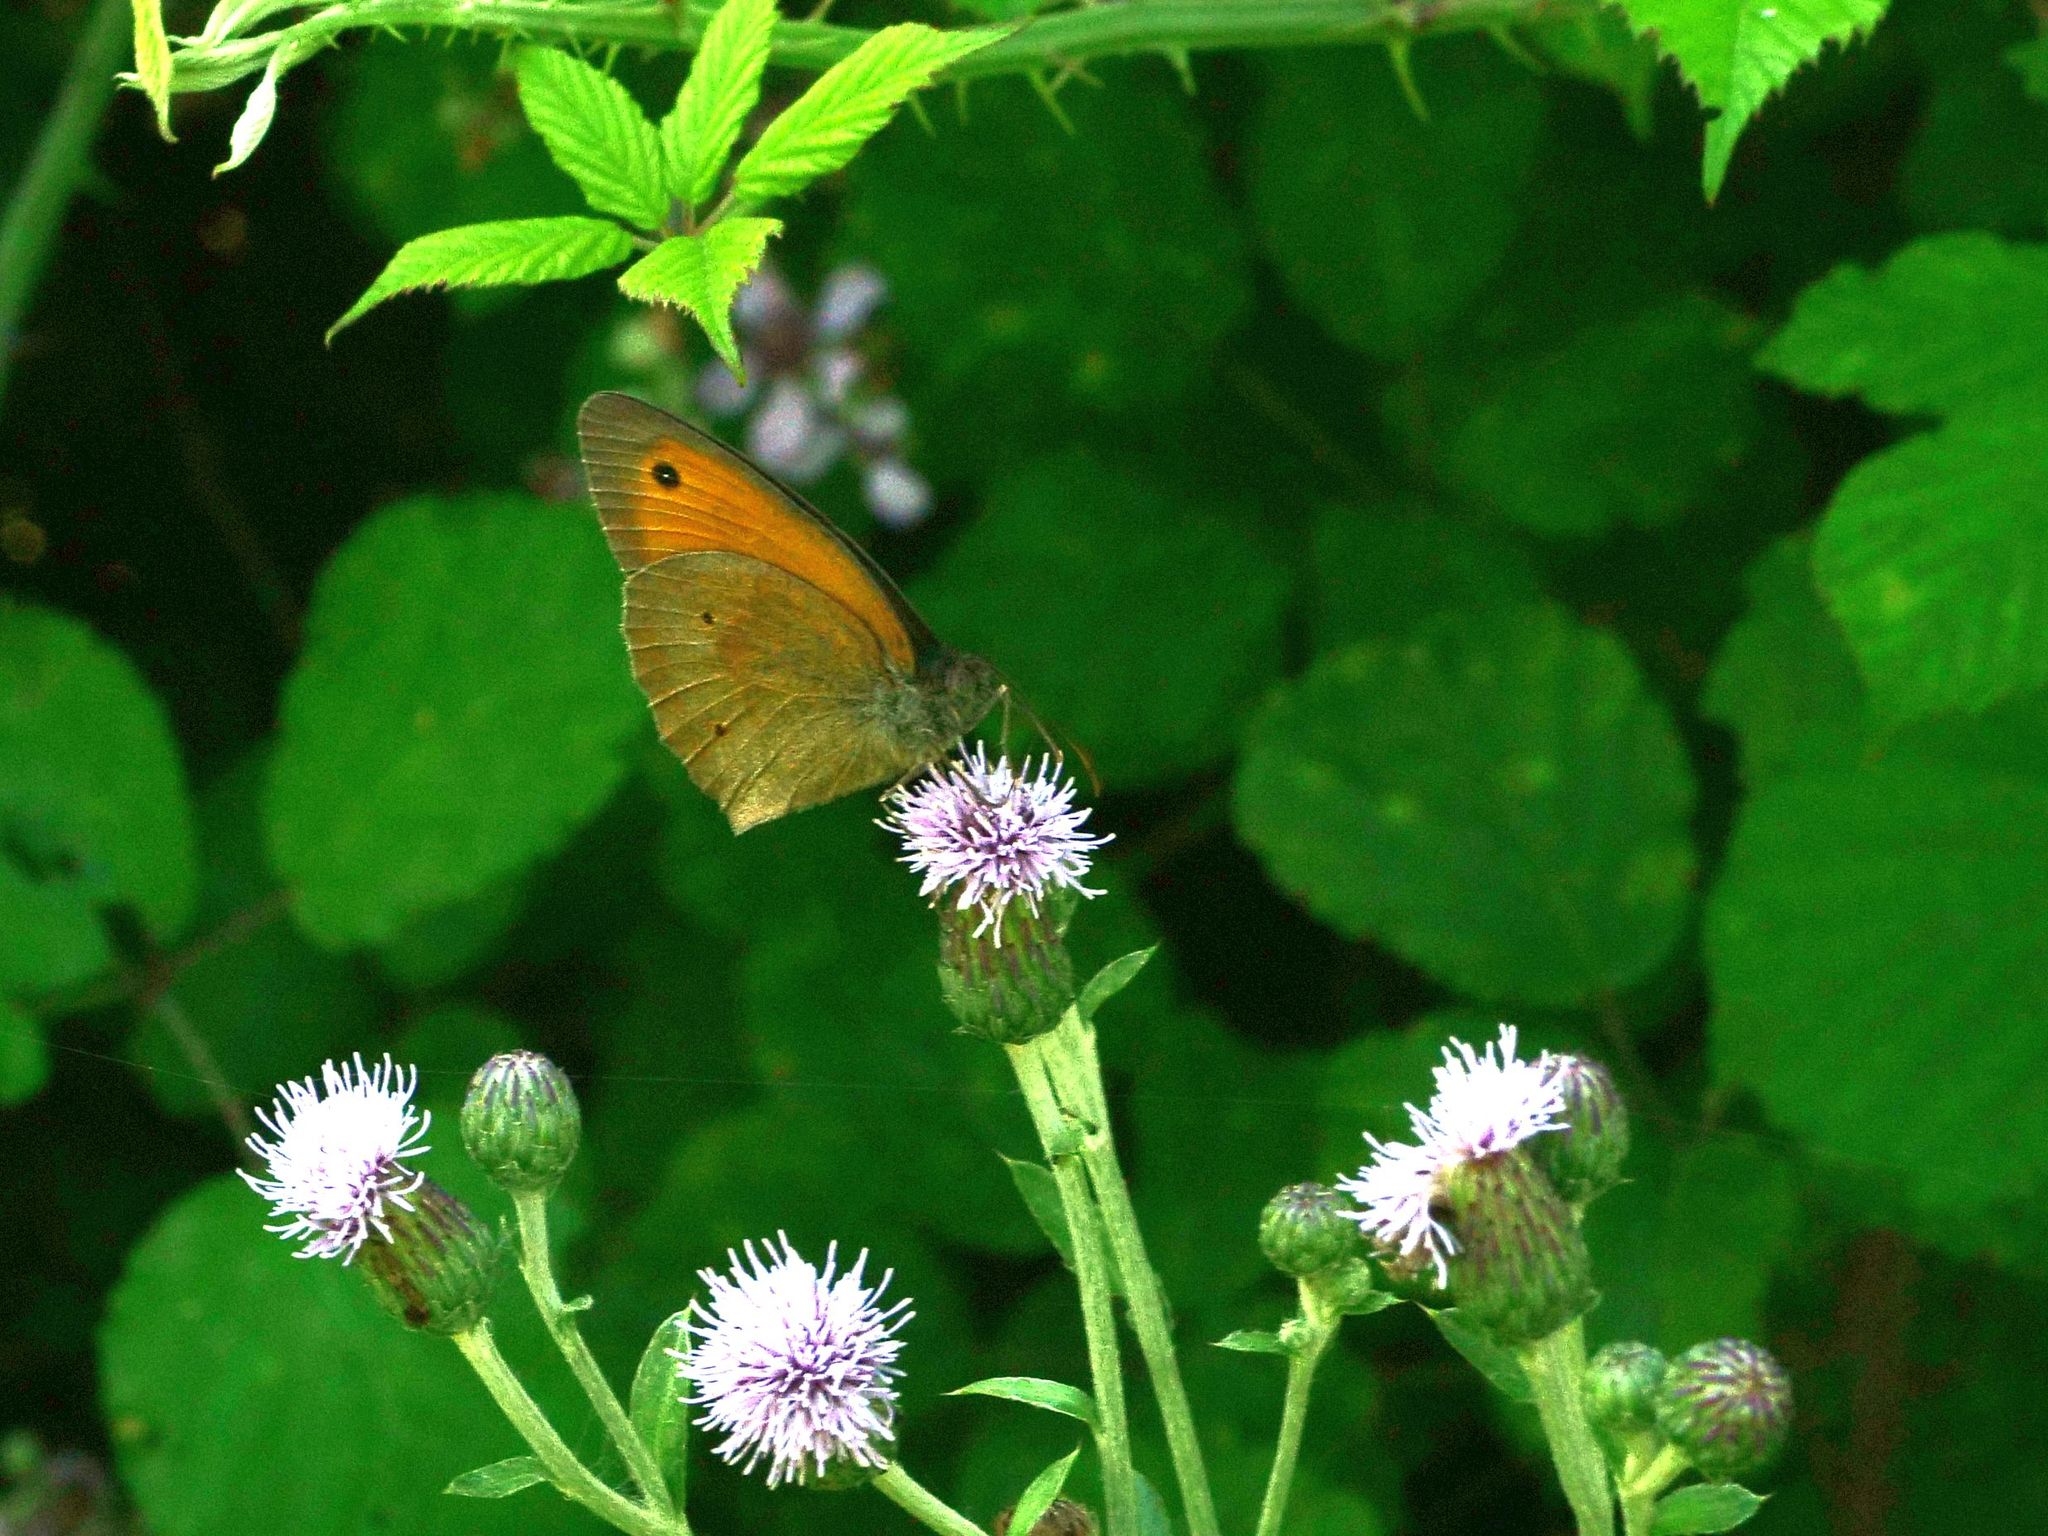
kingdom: Animalia
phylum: Arthropoda
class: Insecta
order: Lepidoptera
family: Nymphalidae
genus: Maniola
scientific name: Maniola jurtina
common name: Meadow brown
